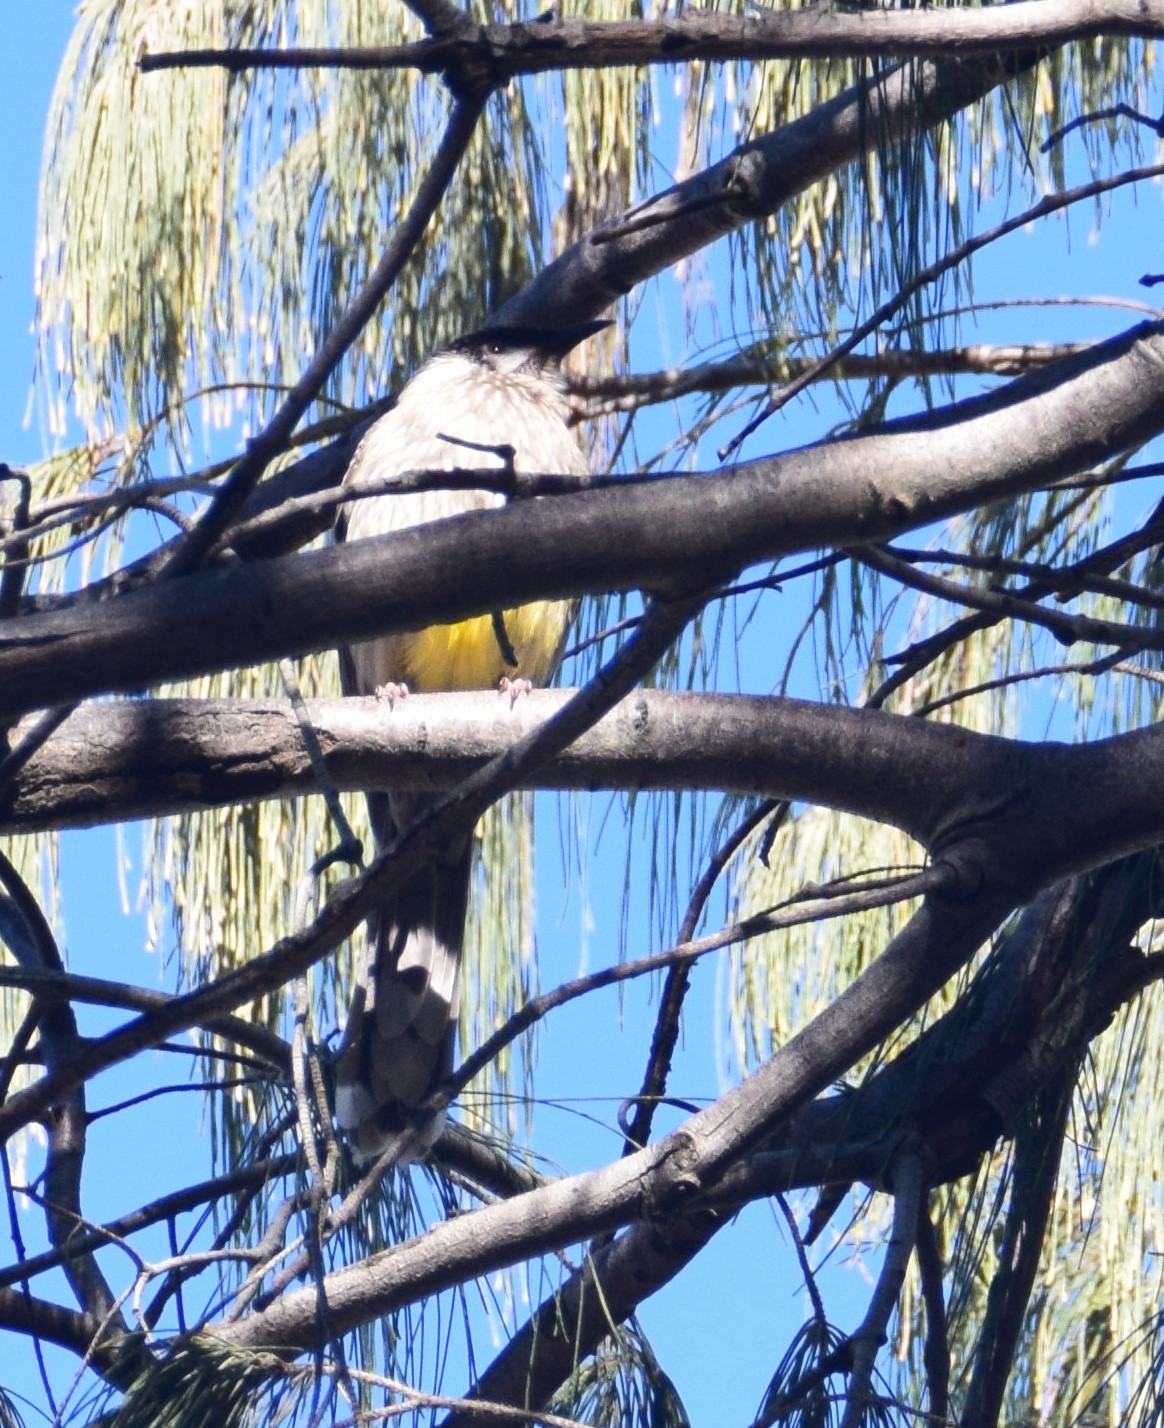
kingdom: Animalia
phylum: Chordata
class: Aves
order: Passeriformes
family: Meliphagidae
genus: Anthochaera
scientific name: Anthochaera carunculata
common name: Red wattlebird
